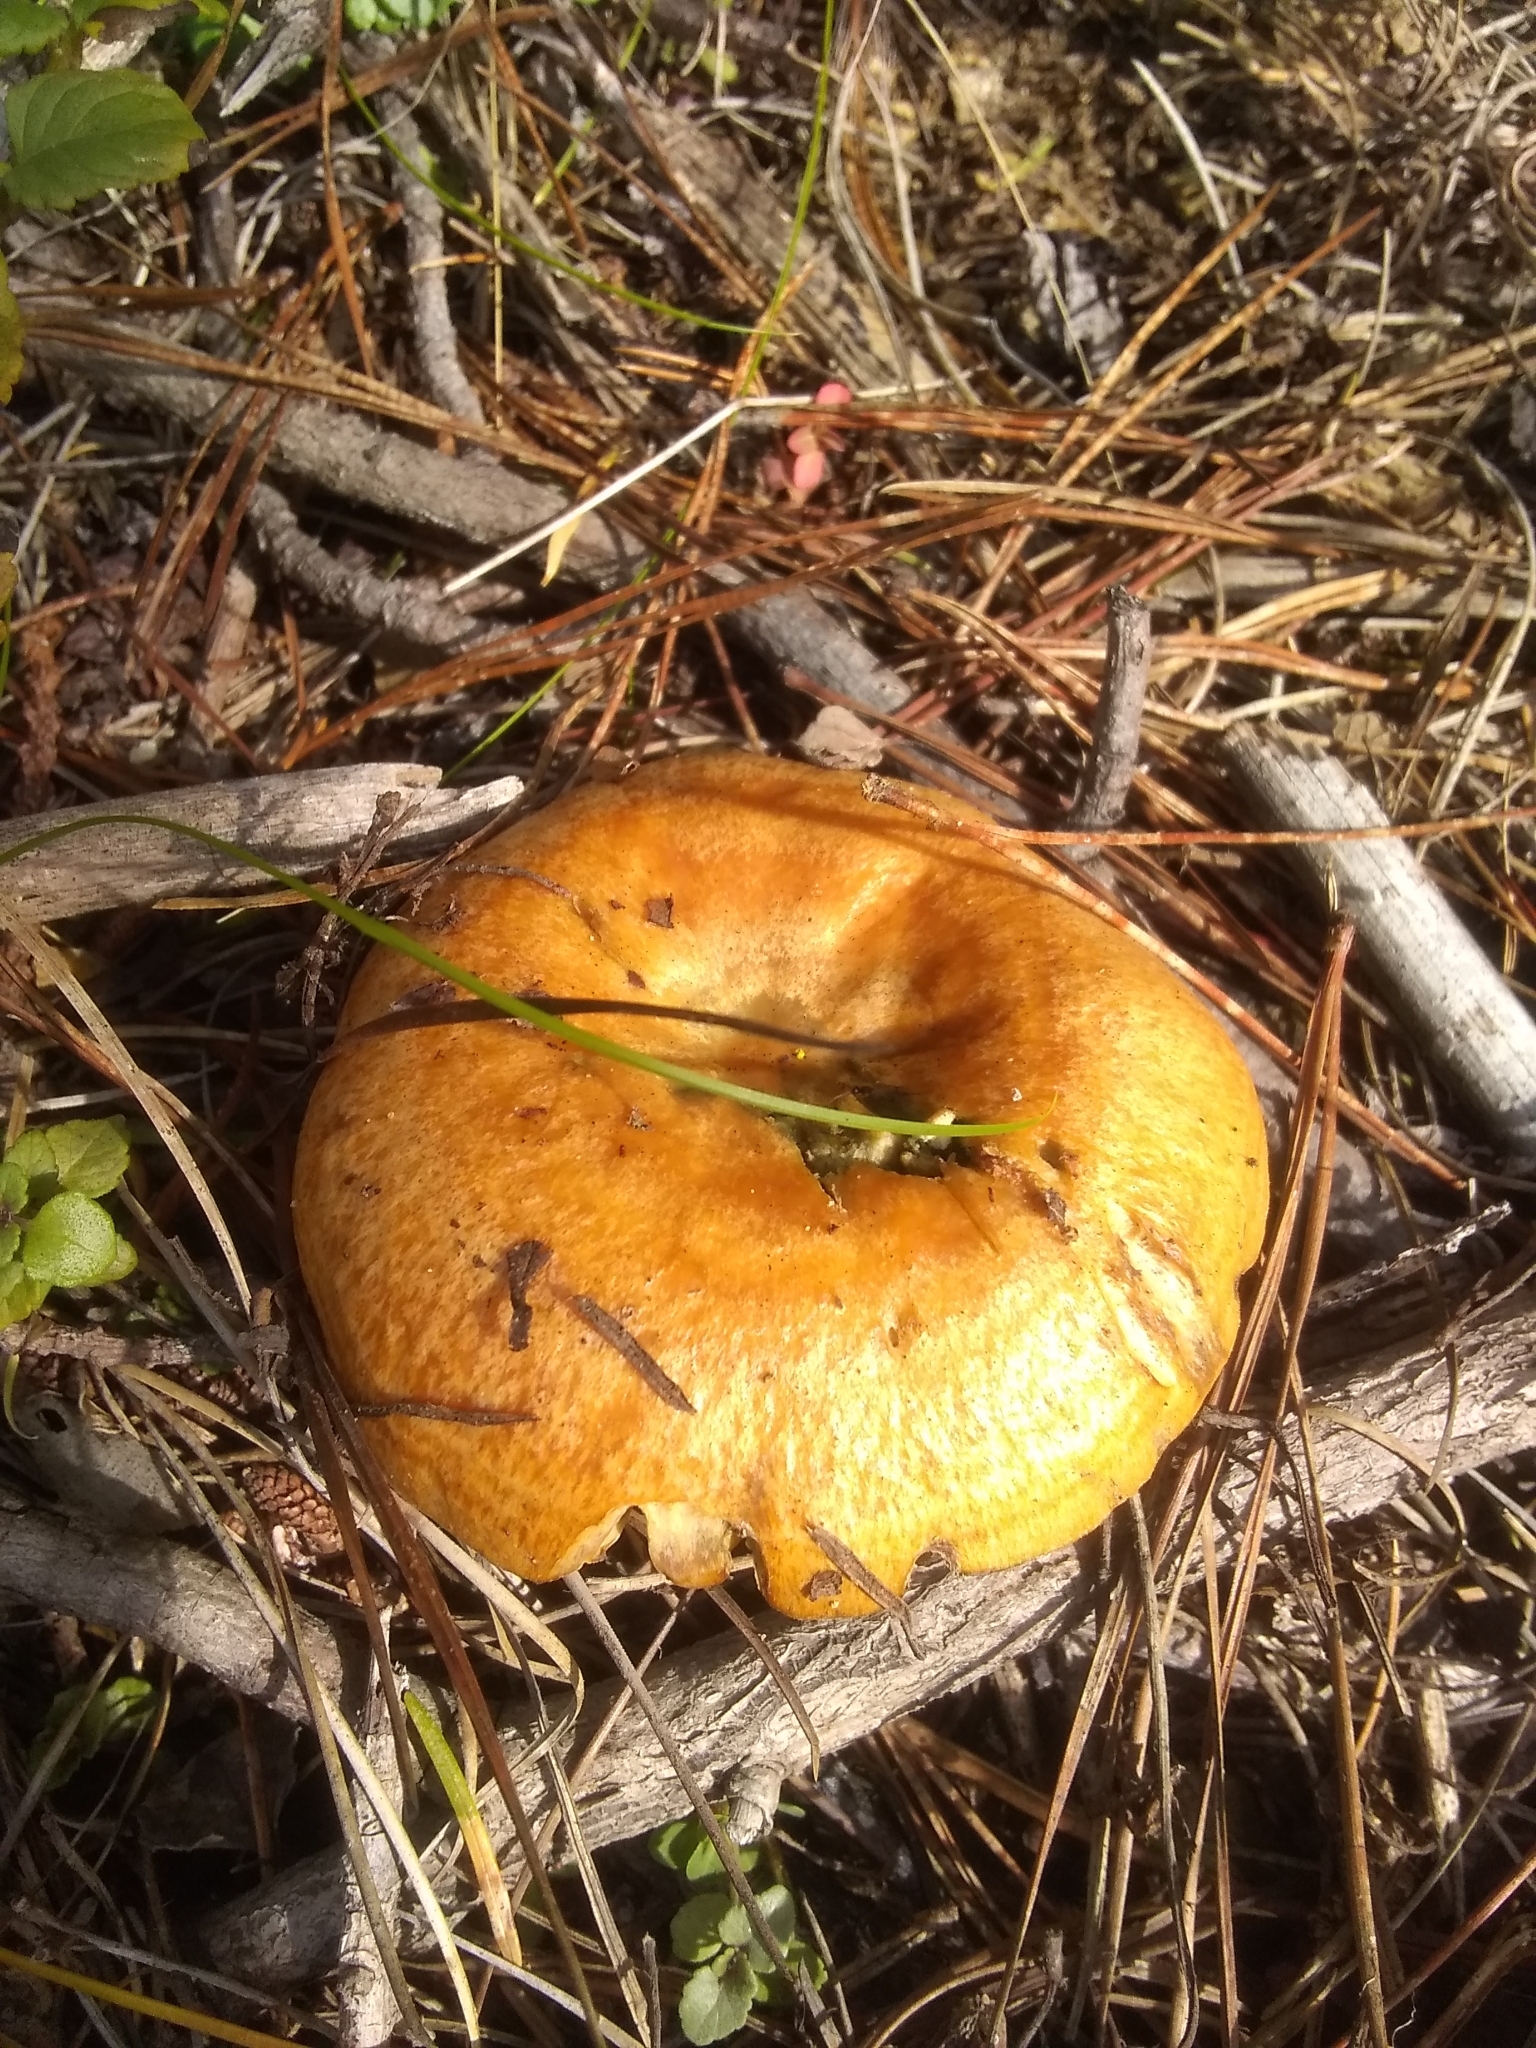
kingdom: Fungi
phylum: Basidiomycota
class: Agaricomycetes
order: Russulales
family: Russulaceae
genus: Lactarius
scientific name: Lactarius rubrilacteus
